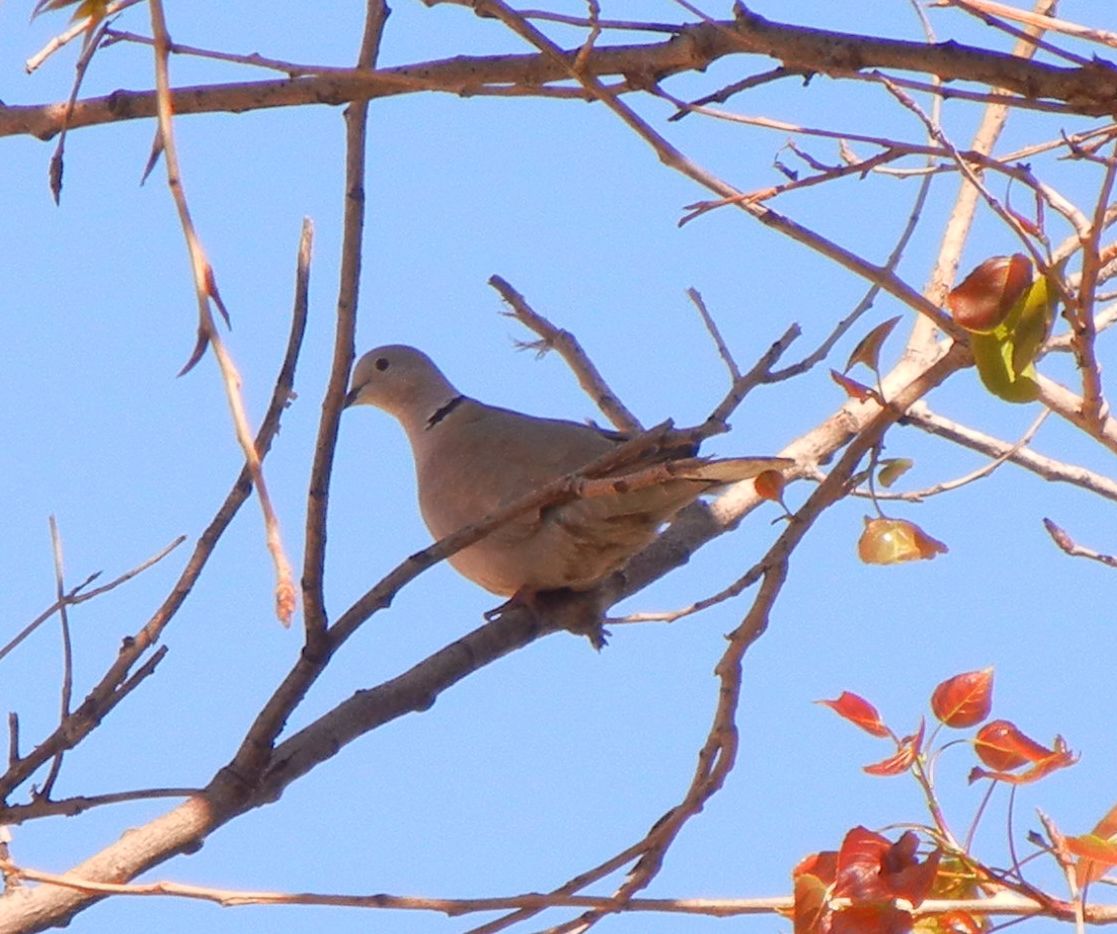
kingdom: Animalia
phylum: Chordata
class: Aves
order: Columbiformes
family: Columbidae
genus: Streptopelia
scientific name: Streptopelia decaocto
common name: Eurasian collared dove
